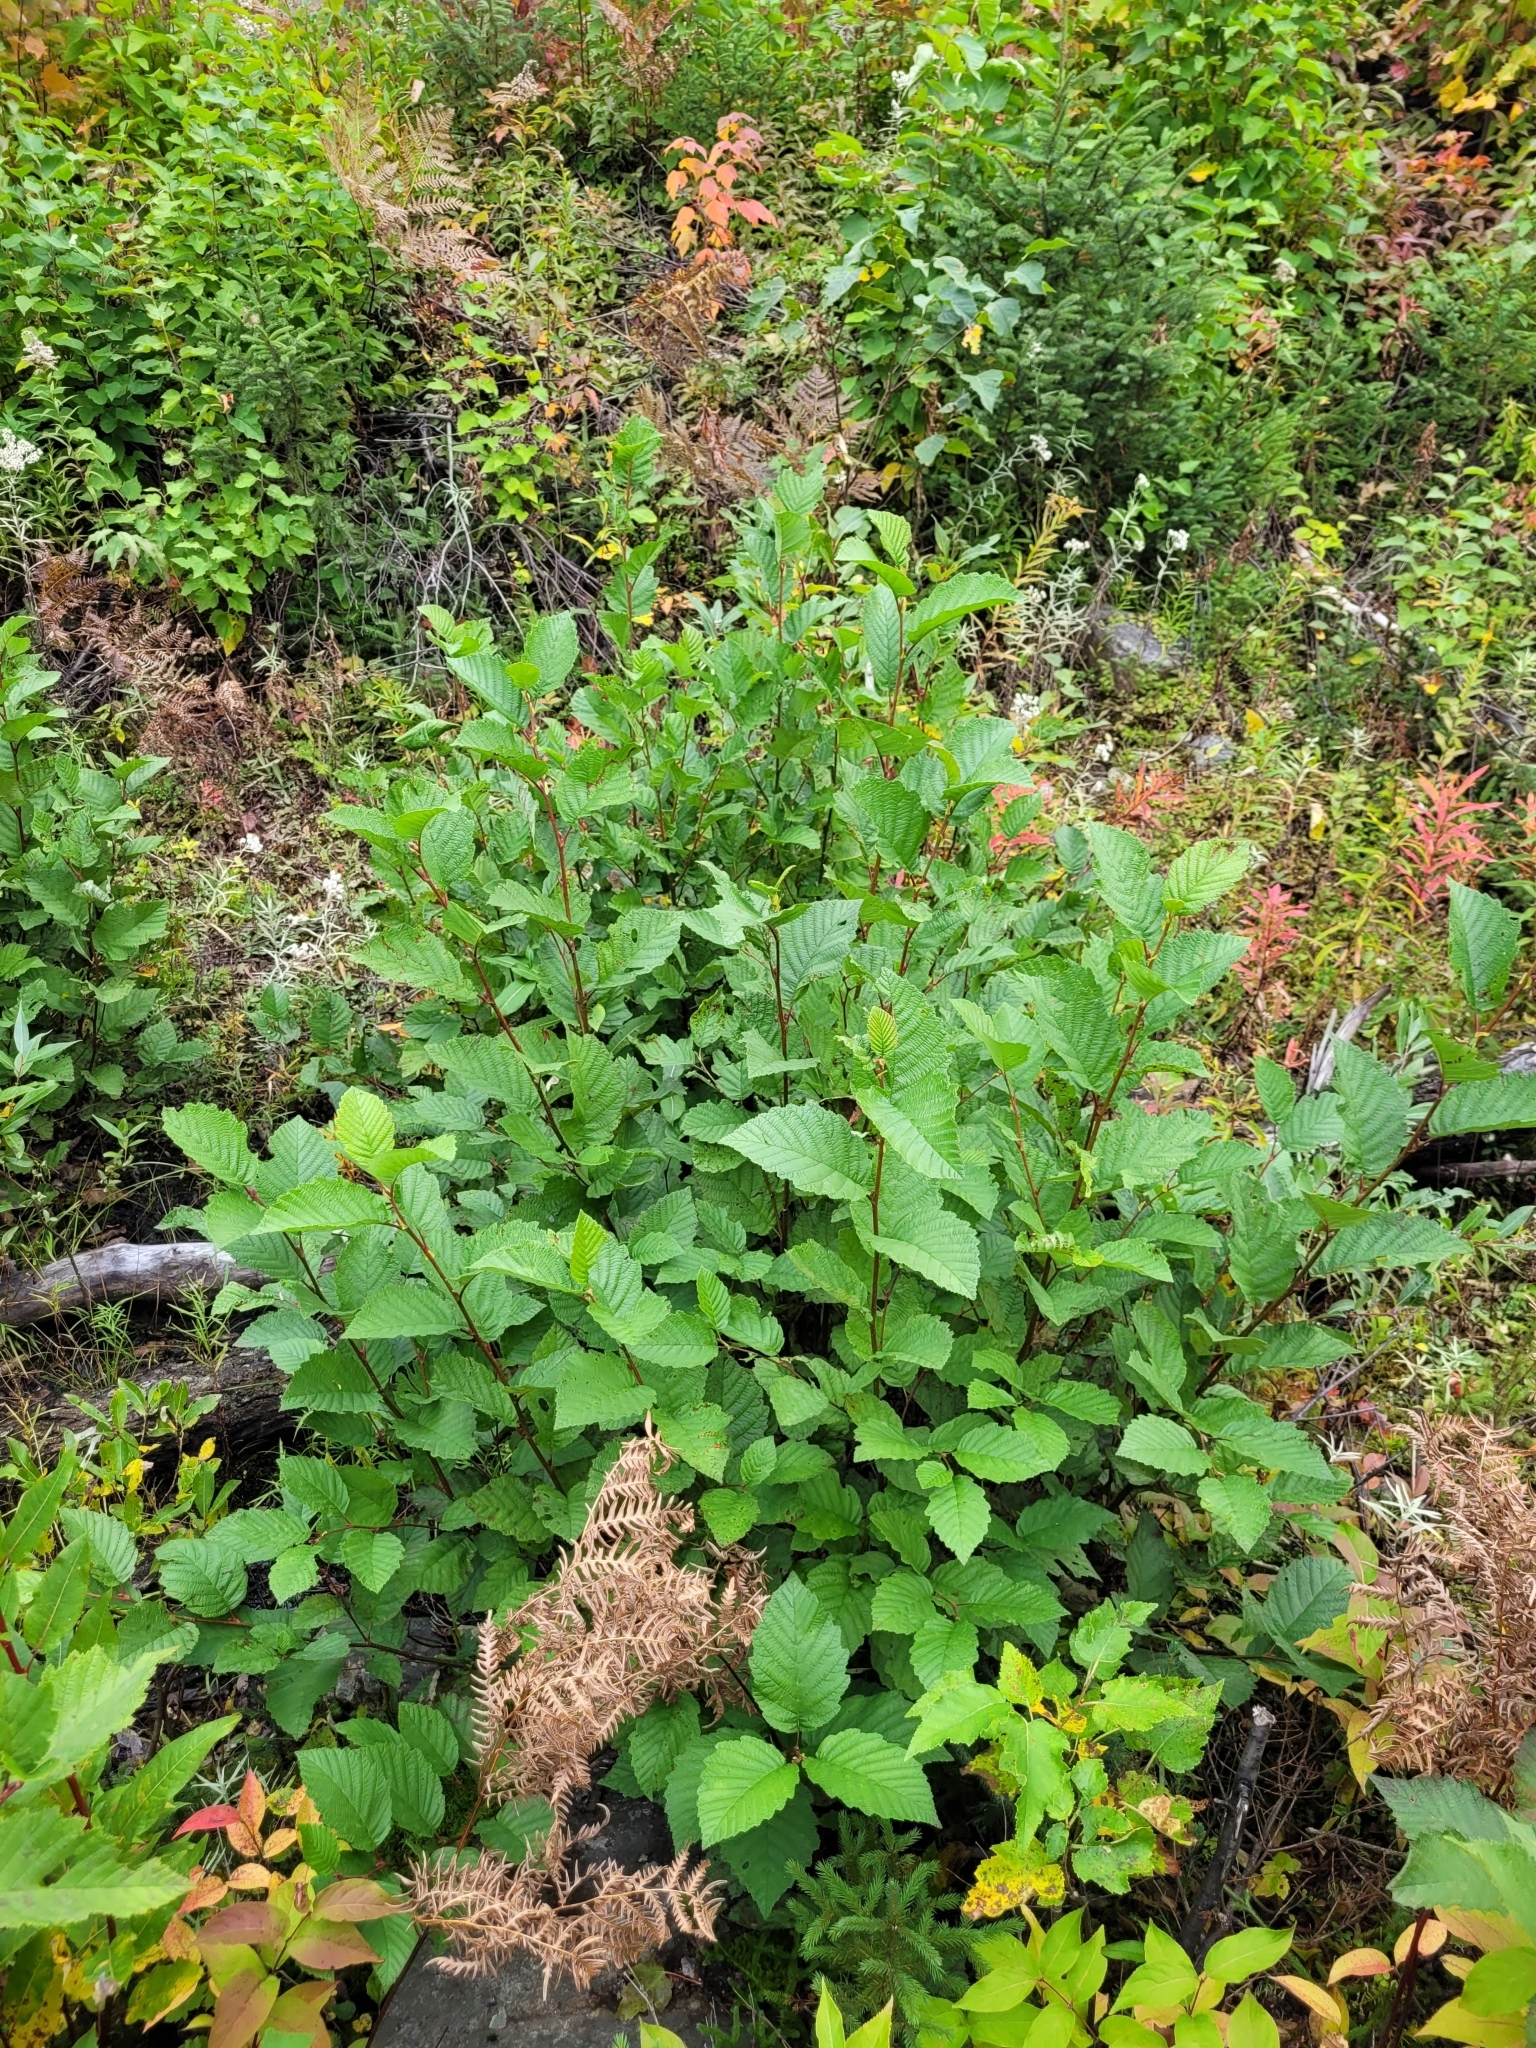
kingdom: Plantae
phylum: Tracheophyta
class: Magnoliopsida
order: Fagales
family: Betulaceae
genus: Alnus
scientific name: Alnus incana
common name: Grey alder
